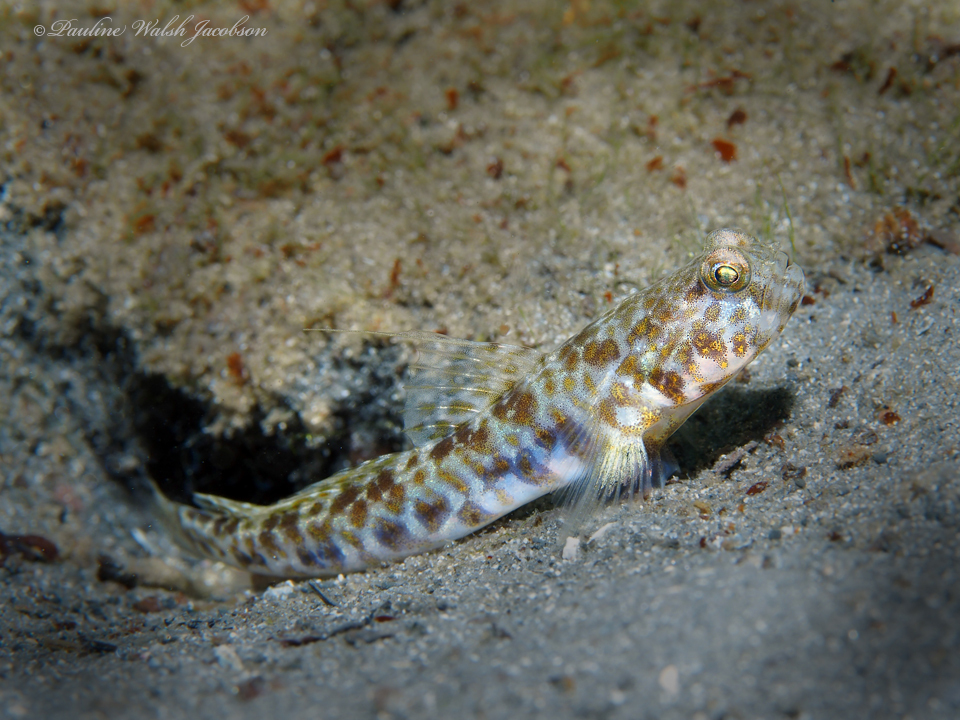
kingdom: Animalia
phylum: Chordata
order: Perciformes
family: Gobiidae
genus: Nes
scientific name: Nes longus
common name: Orangespotted goby
